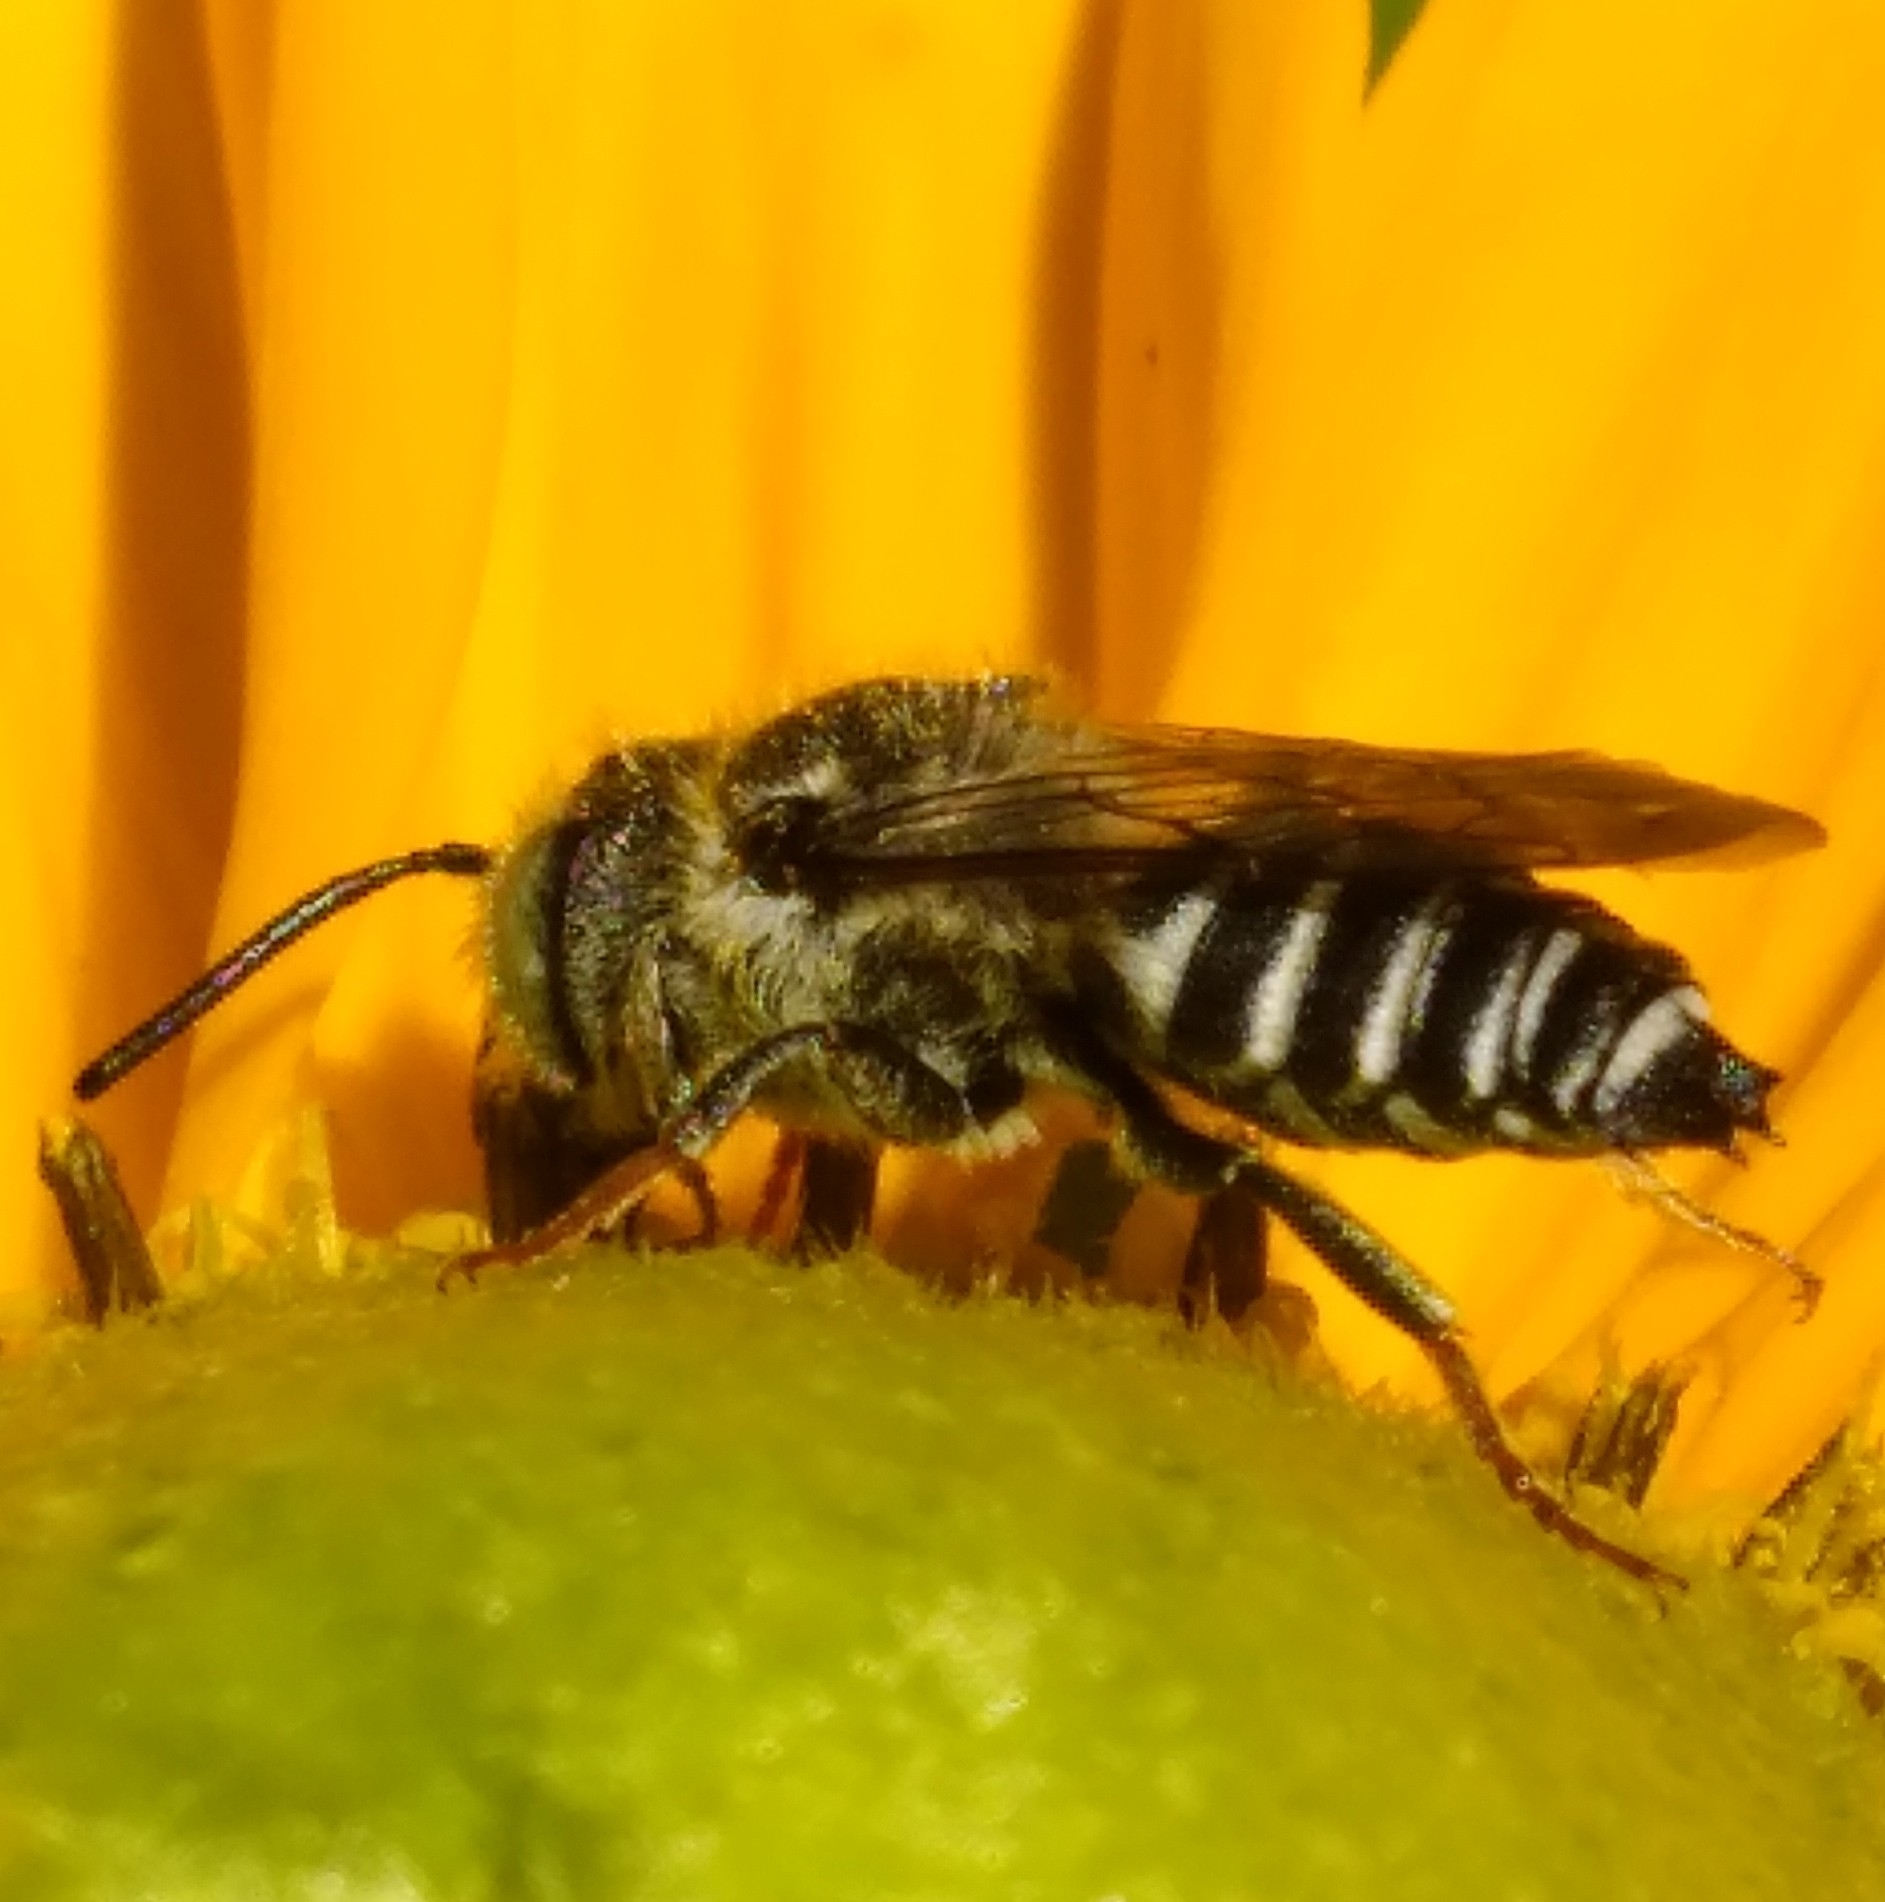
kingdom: Animalia
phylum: Arthropoda
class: Insecta
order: Hymenoptera
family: Megachilidae
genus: Coelioxys
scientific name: Coelioxys rufitarsis
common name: Red-footed sharptail
